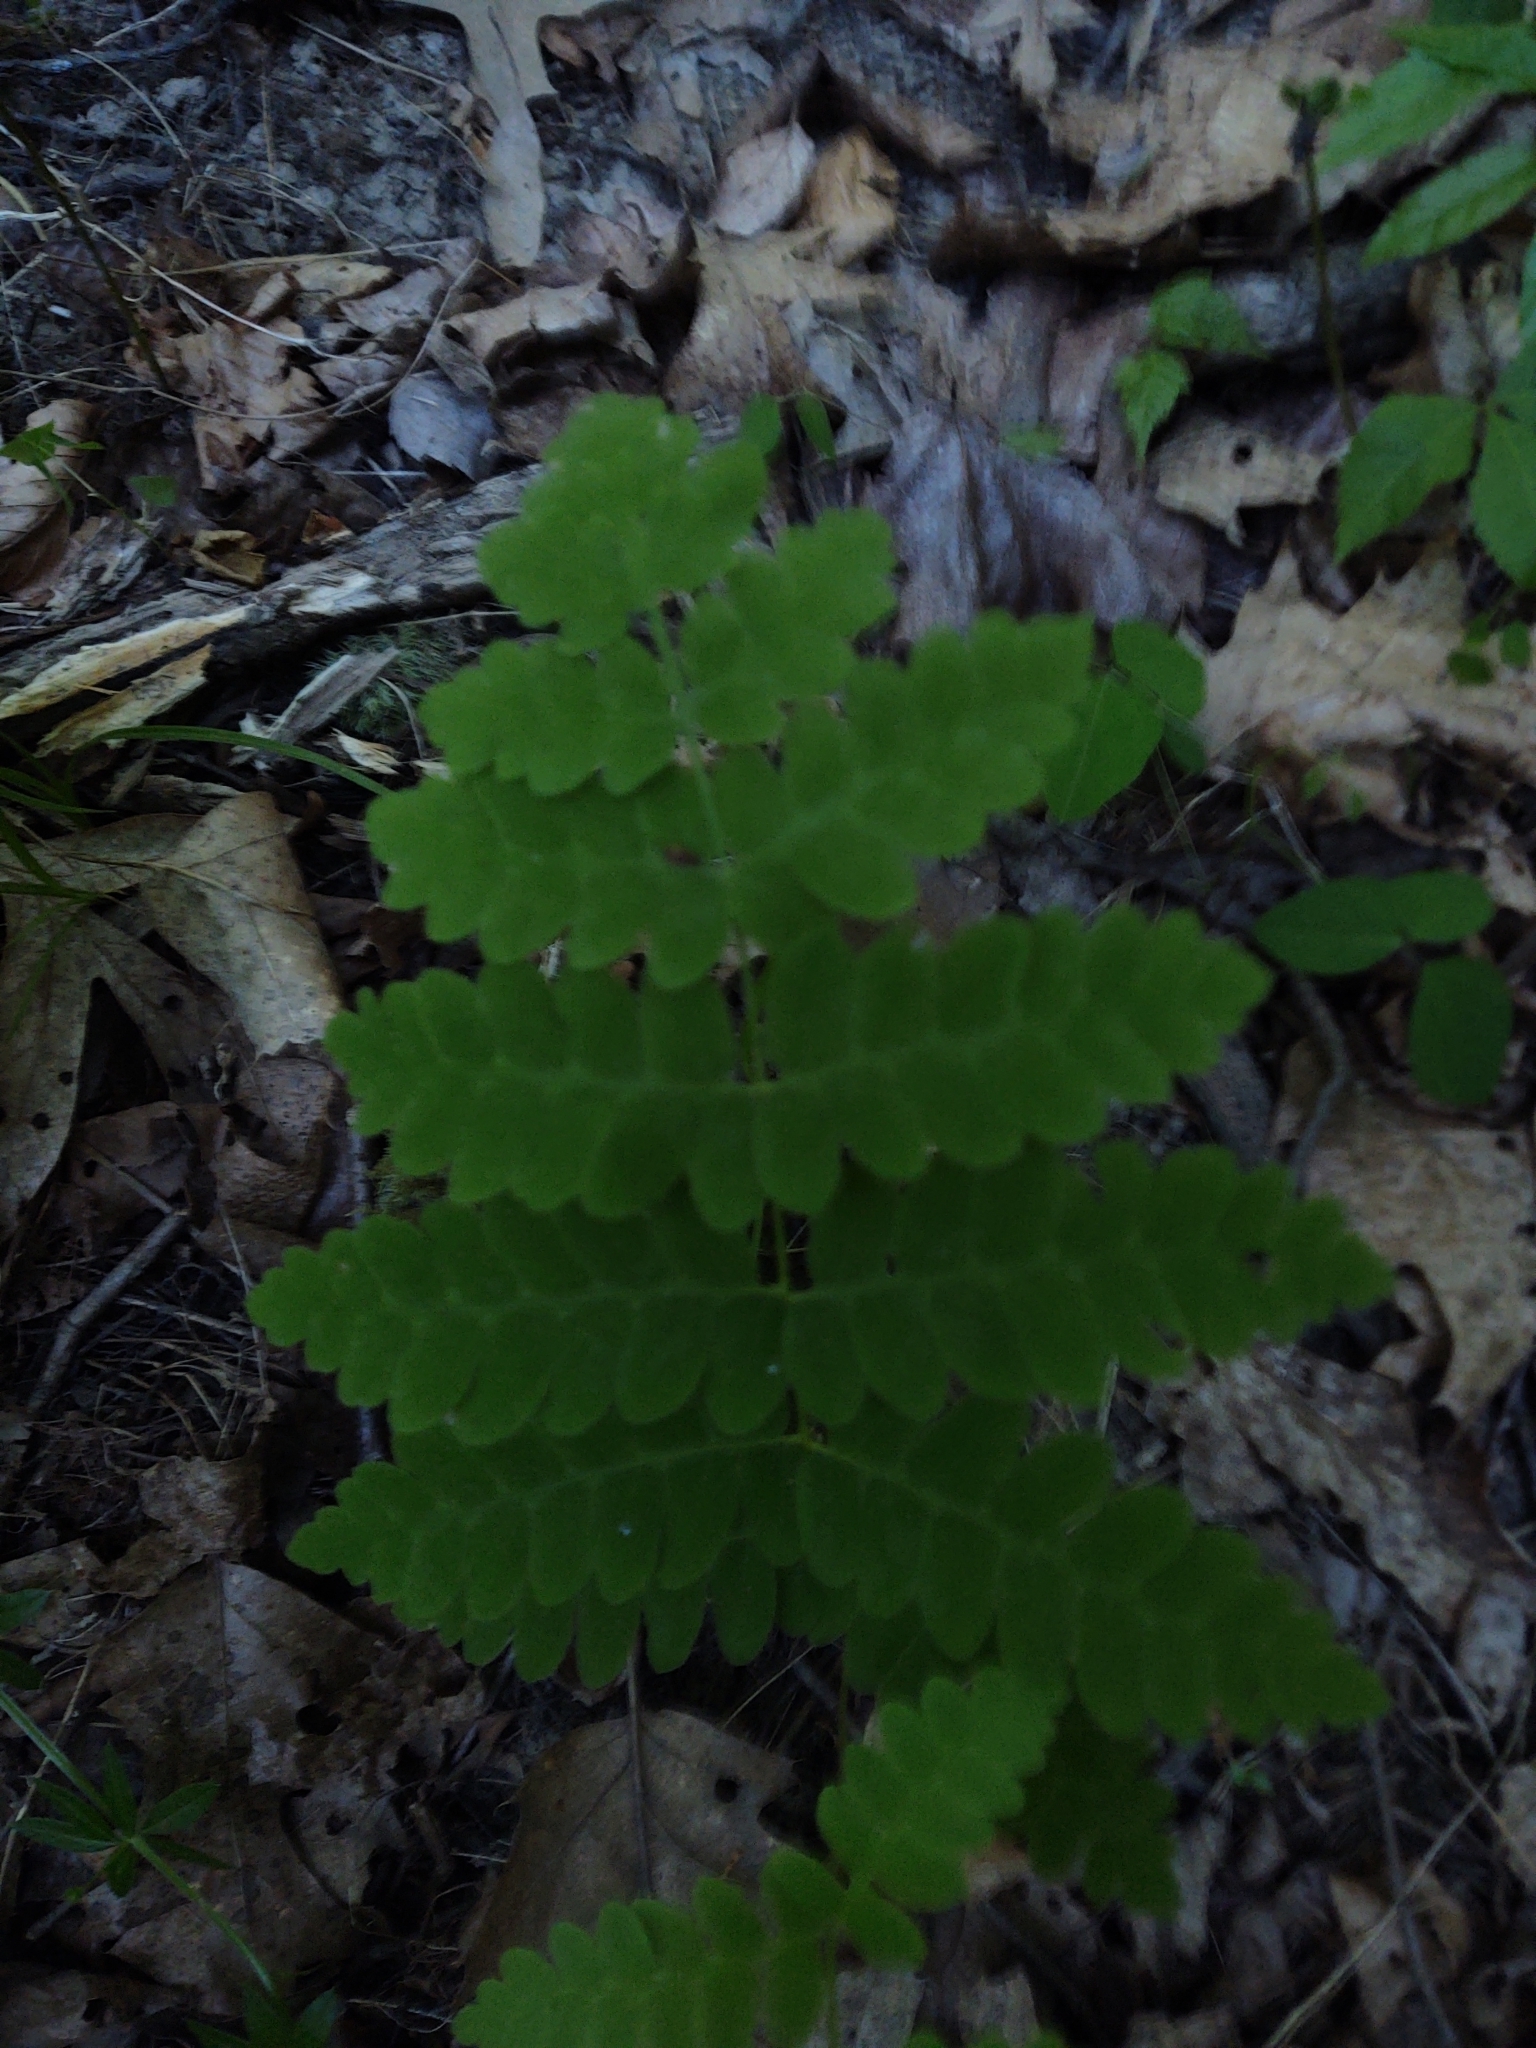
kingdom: Plantae
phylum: Tracheophyta
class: Polypodiopsida
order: Osmundales
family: Osmundaceae
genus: Claytosmunda
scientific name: Claytosmunda claytoniana
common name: Clayton's fern
